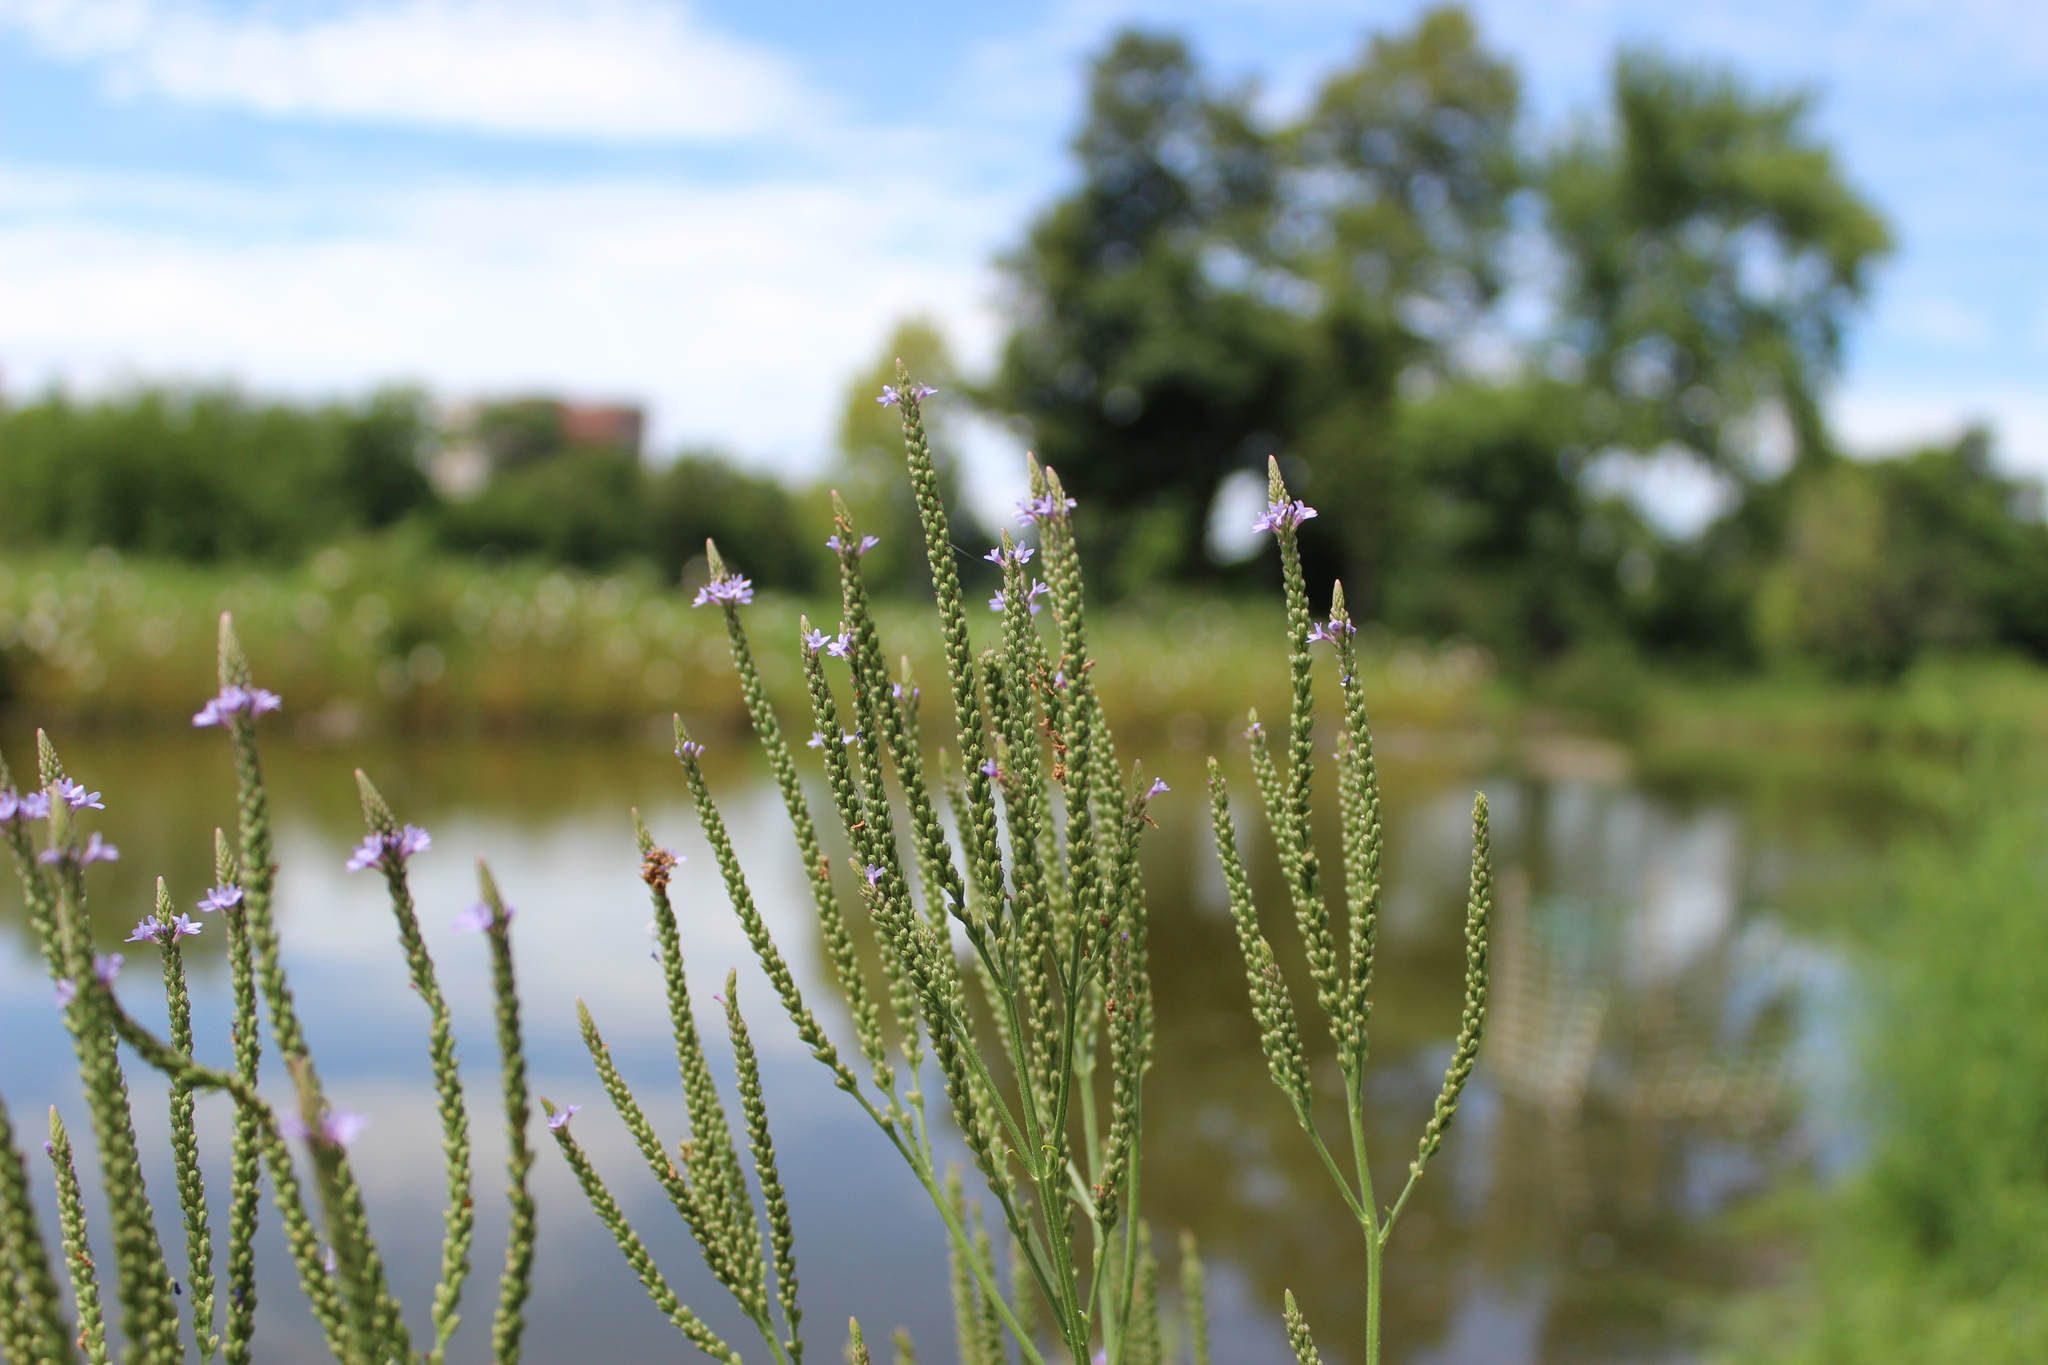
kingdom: Plantae
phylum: Tracheophyta
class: Magnoliopsida
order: Lamiales
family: Verbenaceae
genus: Verbena
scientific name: Verbena hastata
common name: American blue vervain
